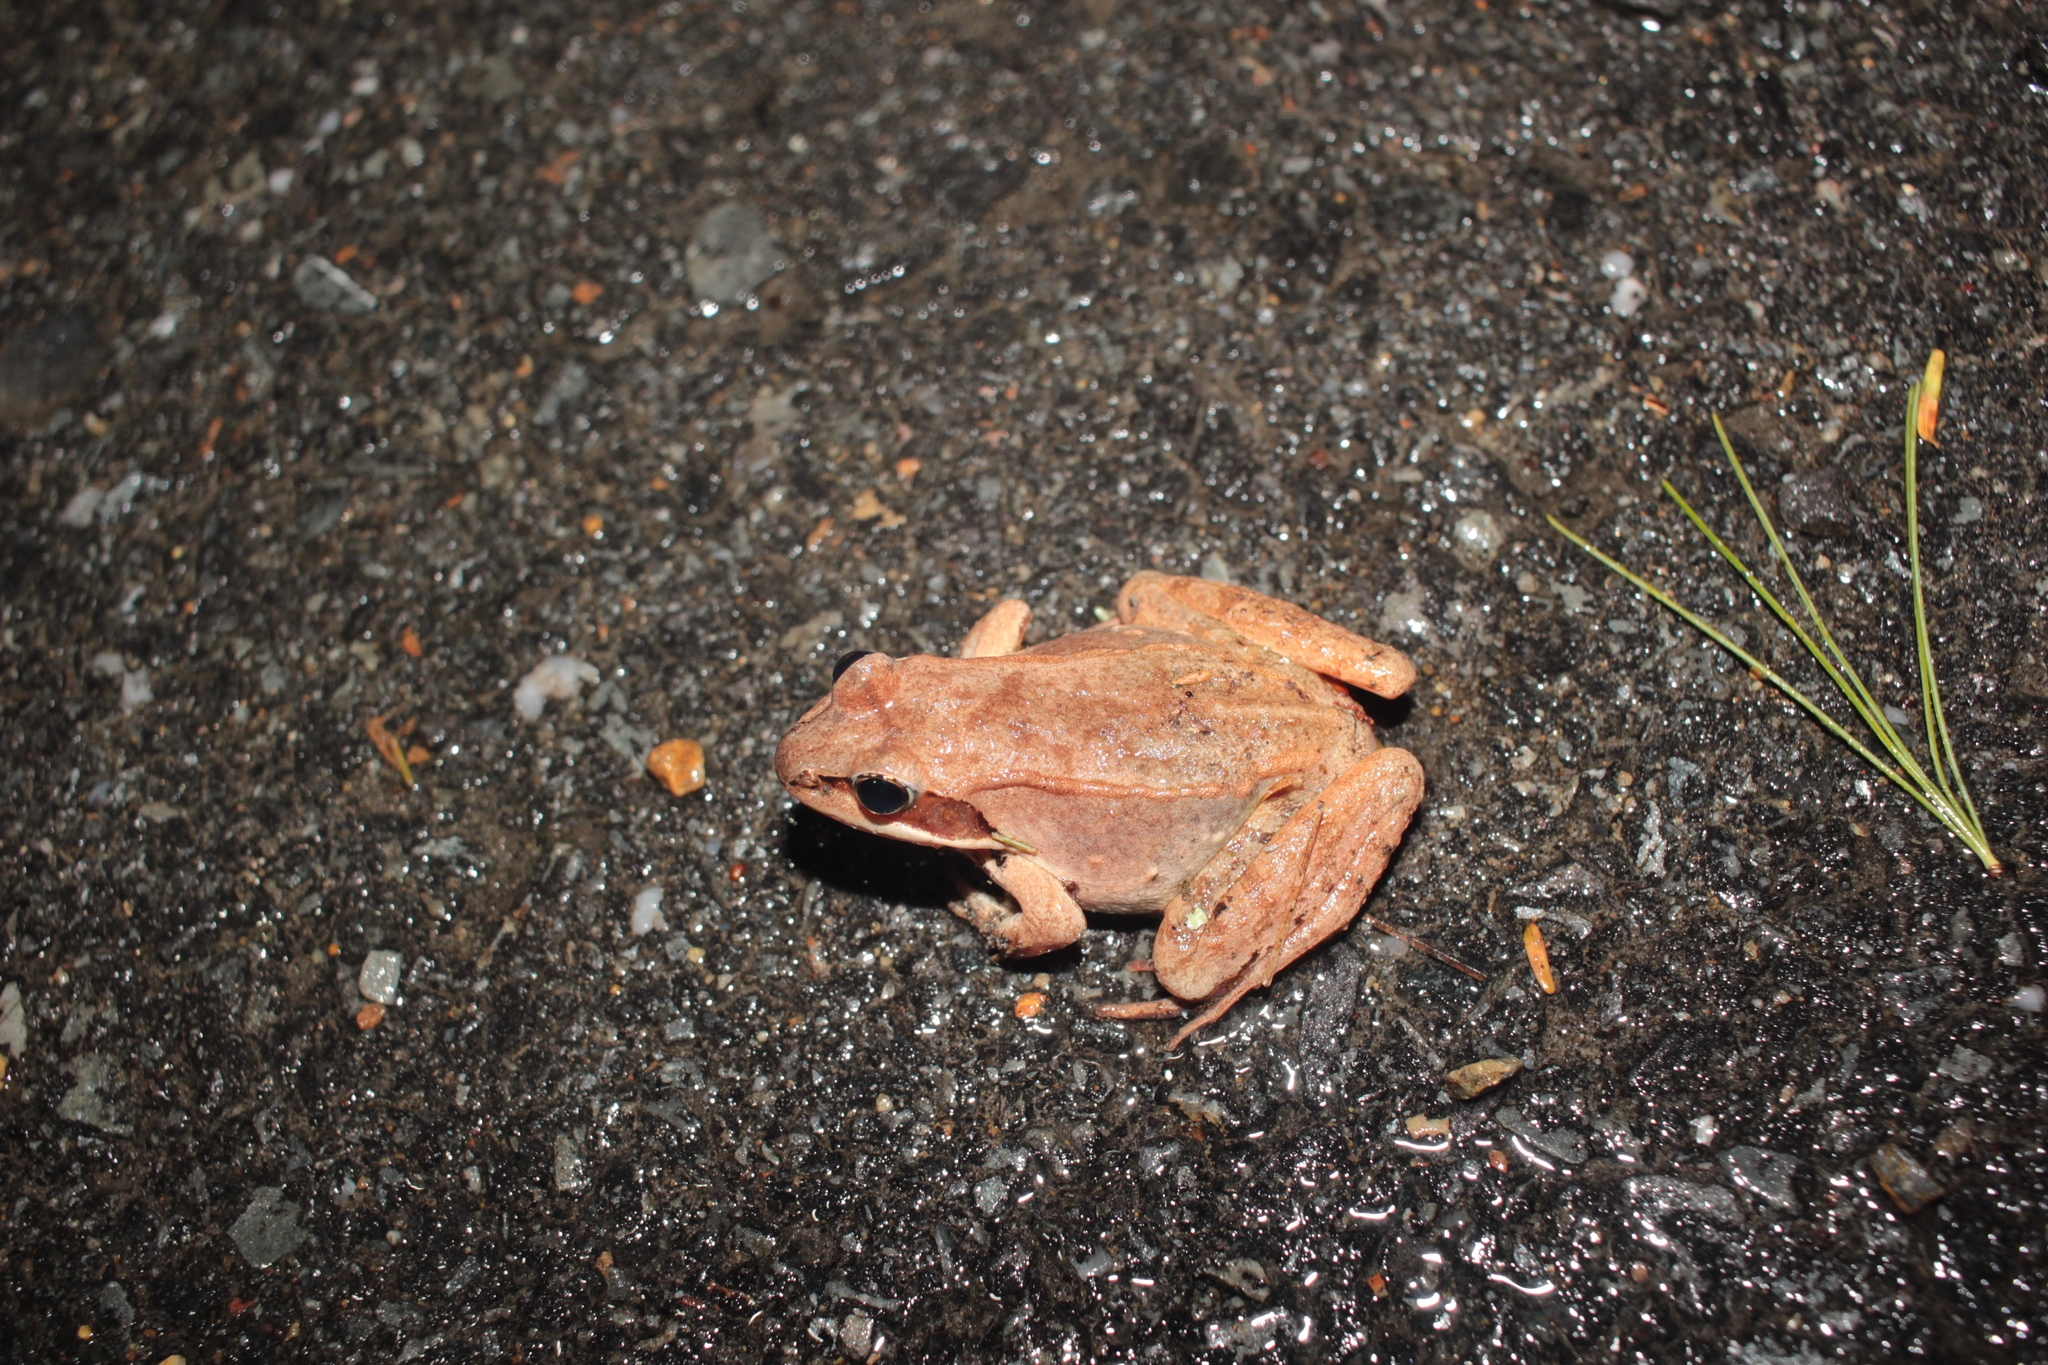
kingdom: Animalia
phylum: Chordata
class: Amphibia
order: Anura
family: Ranidae
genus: Lithobates
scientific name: Lithobates sylvaticus
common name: Wood frog
